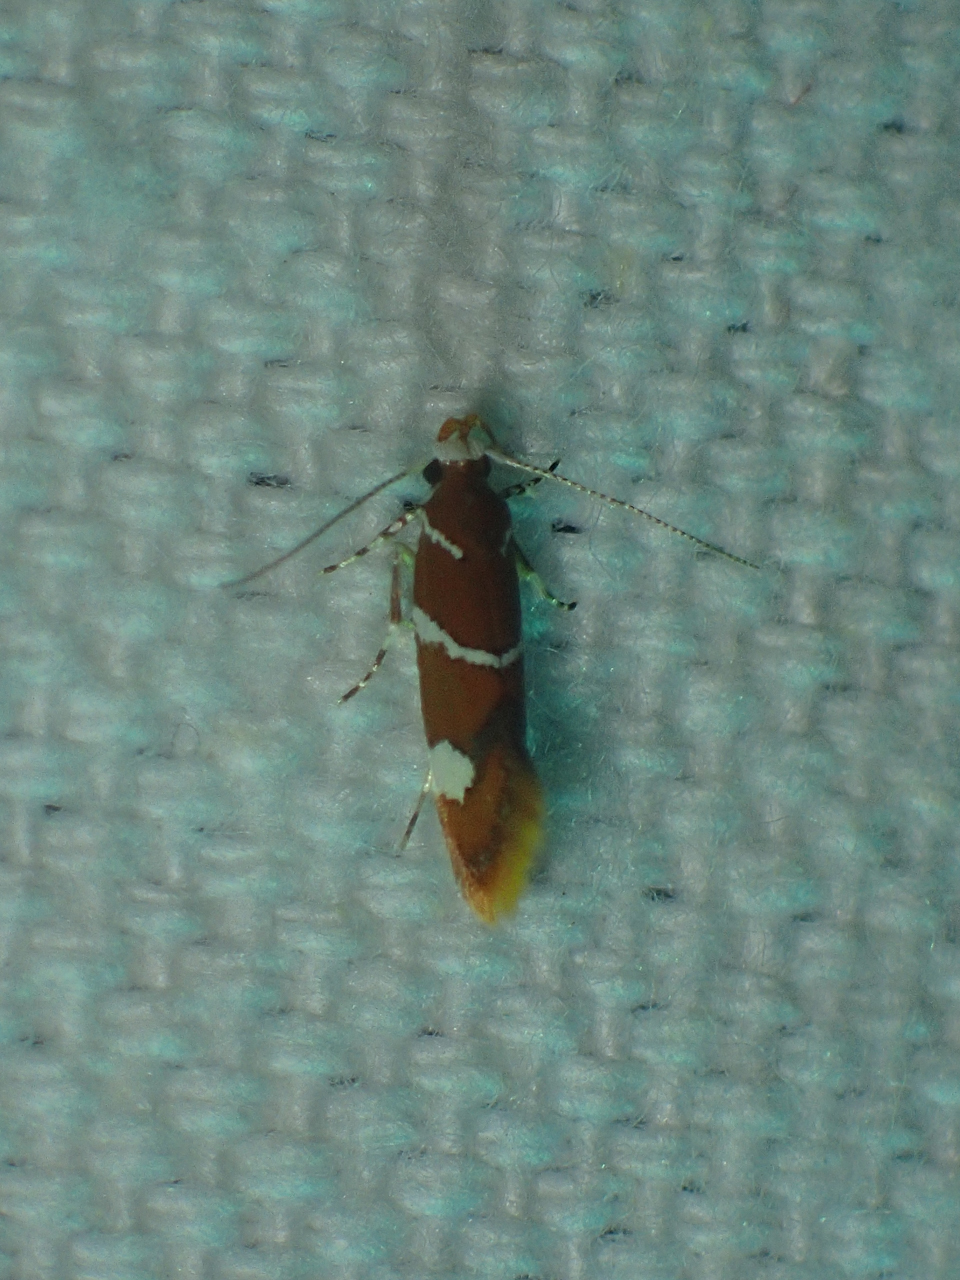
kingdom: Animalia
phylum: Arthropoda
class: Insecta
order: Lepidoptera
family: Oecophoridae
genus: Promalactis
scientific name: Promalactis suzukiella
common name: Moth
